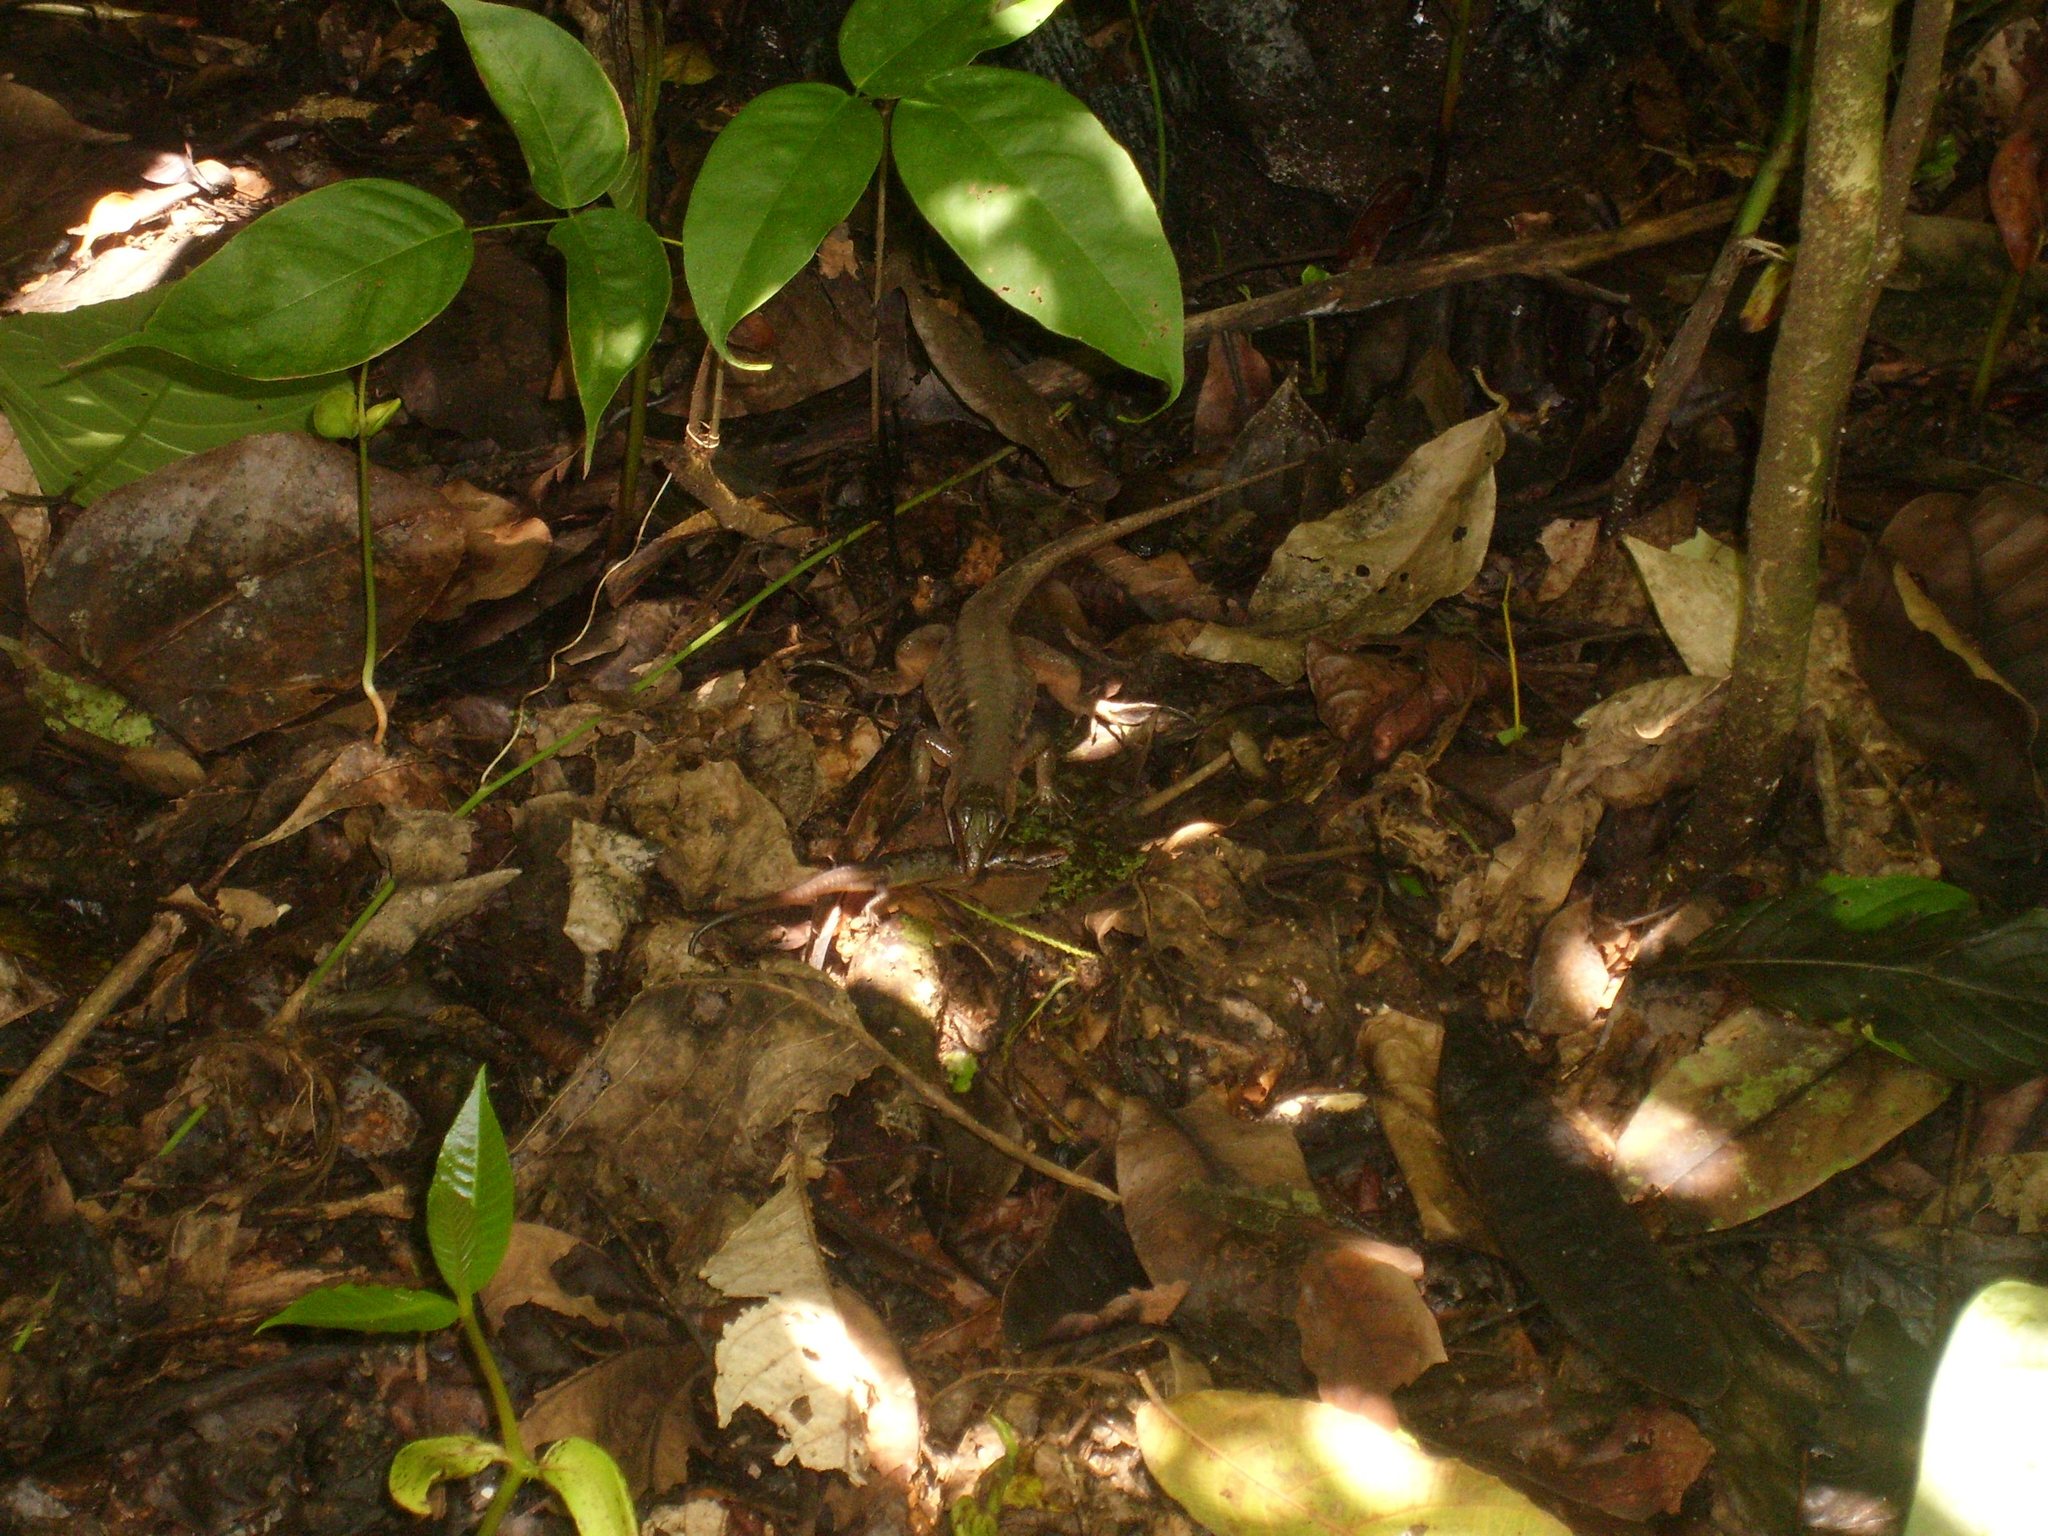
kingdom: Animalia
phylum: Chordata
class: Squamata
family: Teiidae
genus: Holcosus
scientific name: Holcosus festivus
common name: Middle american ameiva
